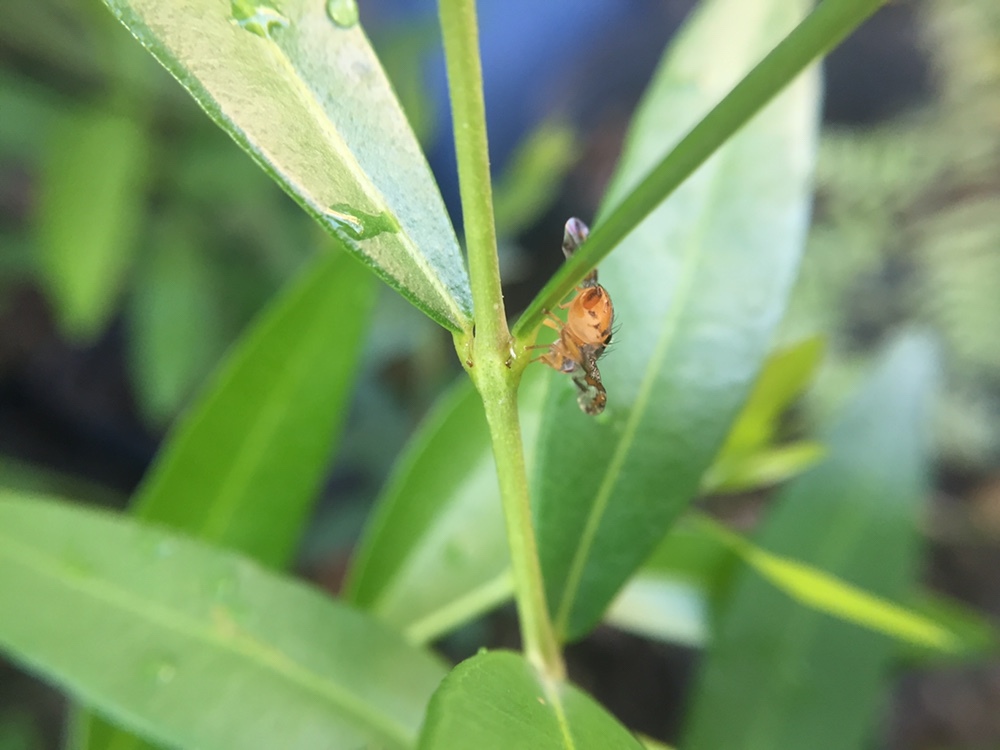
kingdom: Animalia
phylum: Arthropoda
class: Insecta
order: Diptera
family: Tephritidae
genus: Ceratitis
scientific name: Ceratitis capitata
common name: Mediterranean fruit fly
